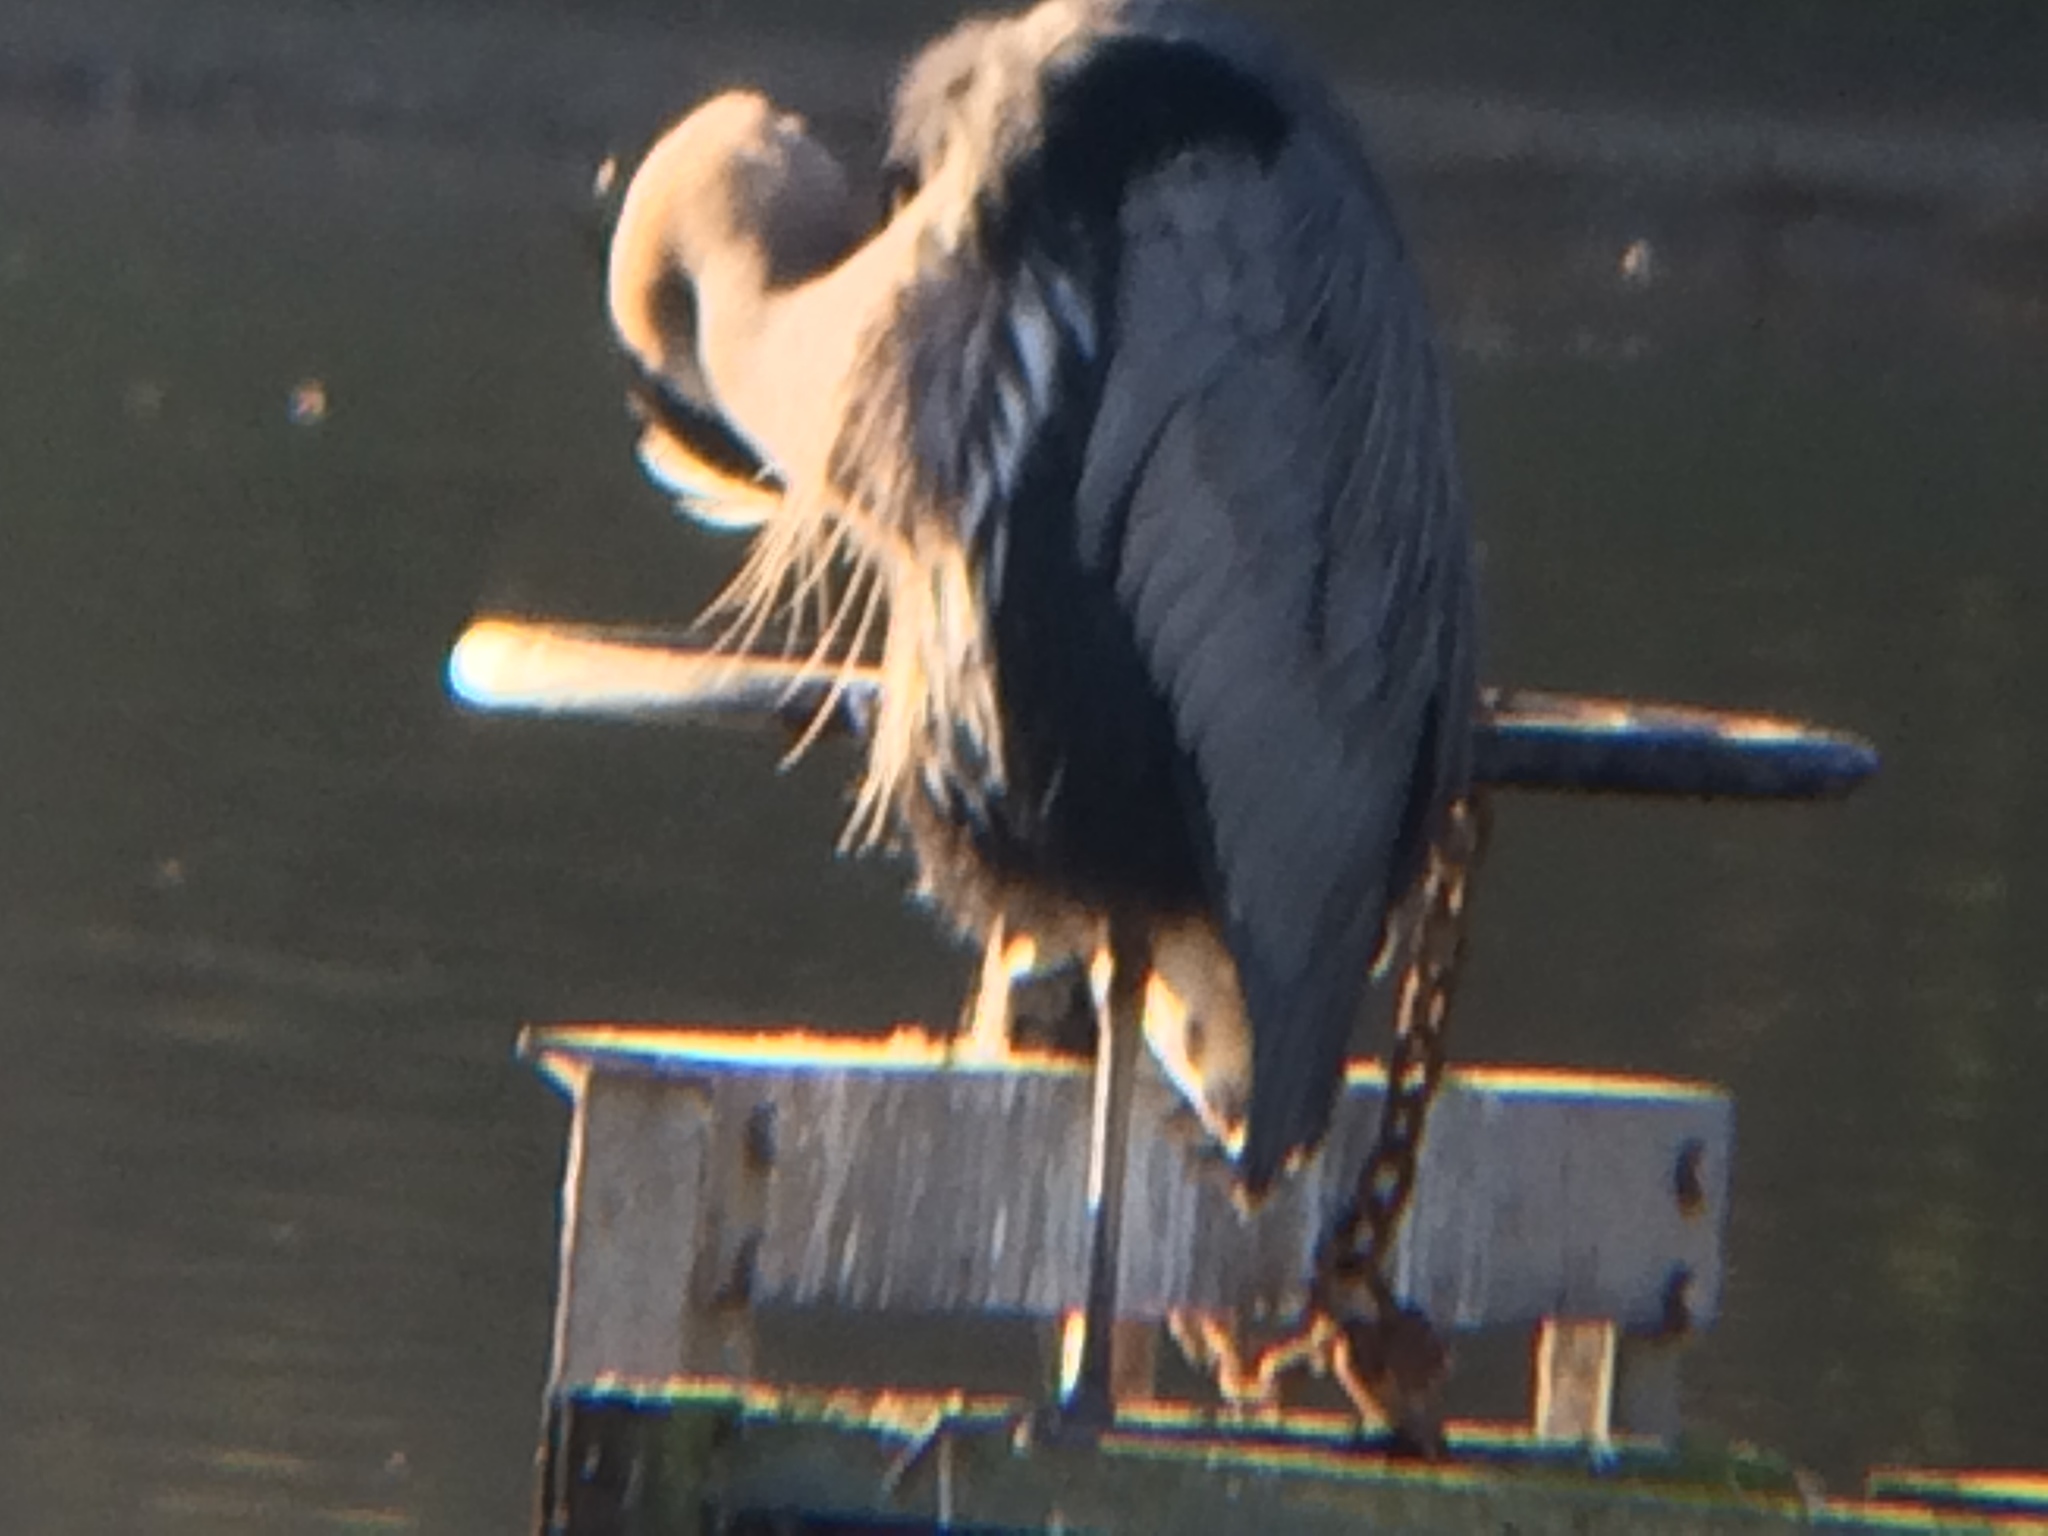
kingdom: Animalia
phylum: Chordata
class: Aves
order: Pelecaniformes
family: Ardeidae
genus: Ardea
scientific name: Ardea herodias
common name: Great blue heron
